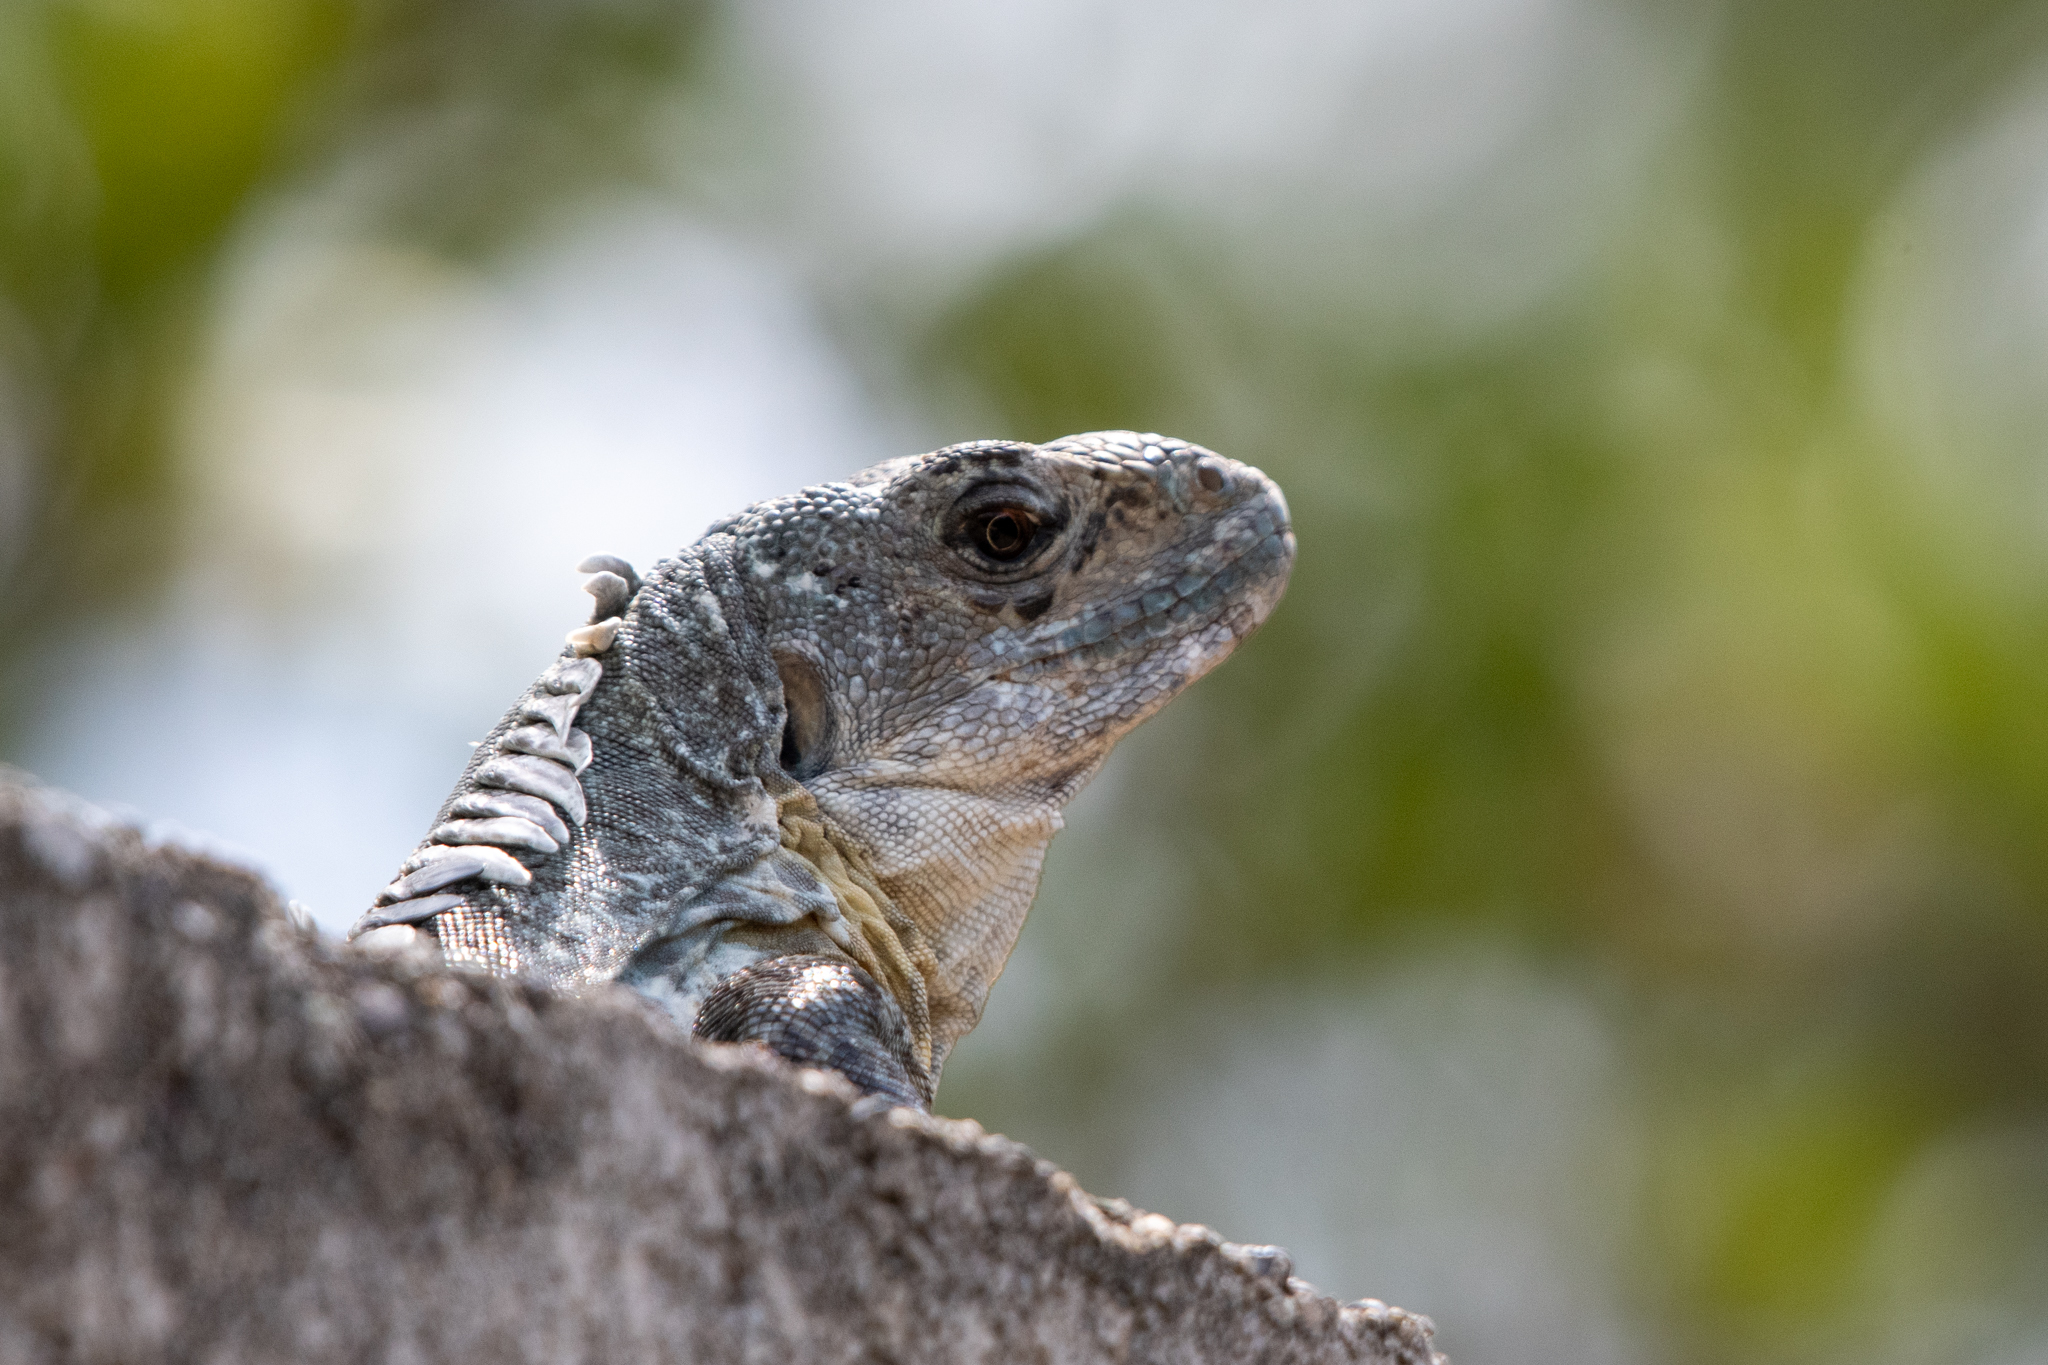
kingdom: Animalia
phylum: Chordata
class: Squamata
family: Iguanidae
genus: Ctenosaura
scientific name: Ctenosaura bakeri
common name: Utila spiny-tailed iguana
